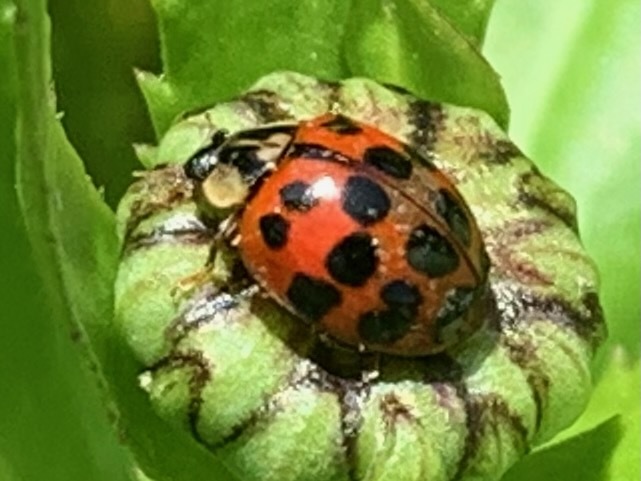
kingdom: Animalia
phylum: Arthropoda
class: Insecta
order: Coleoptera
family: Coccinellidae
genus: Harmonia
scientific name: Harmonia axyridis
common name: Harlequin ladybird
